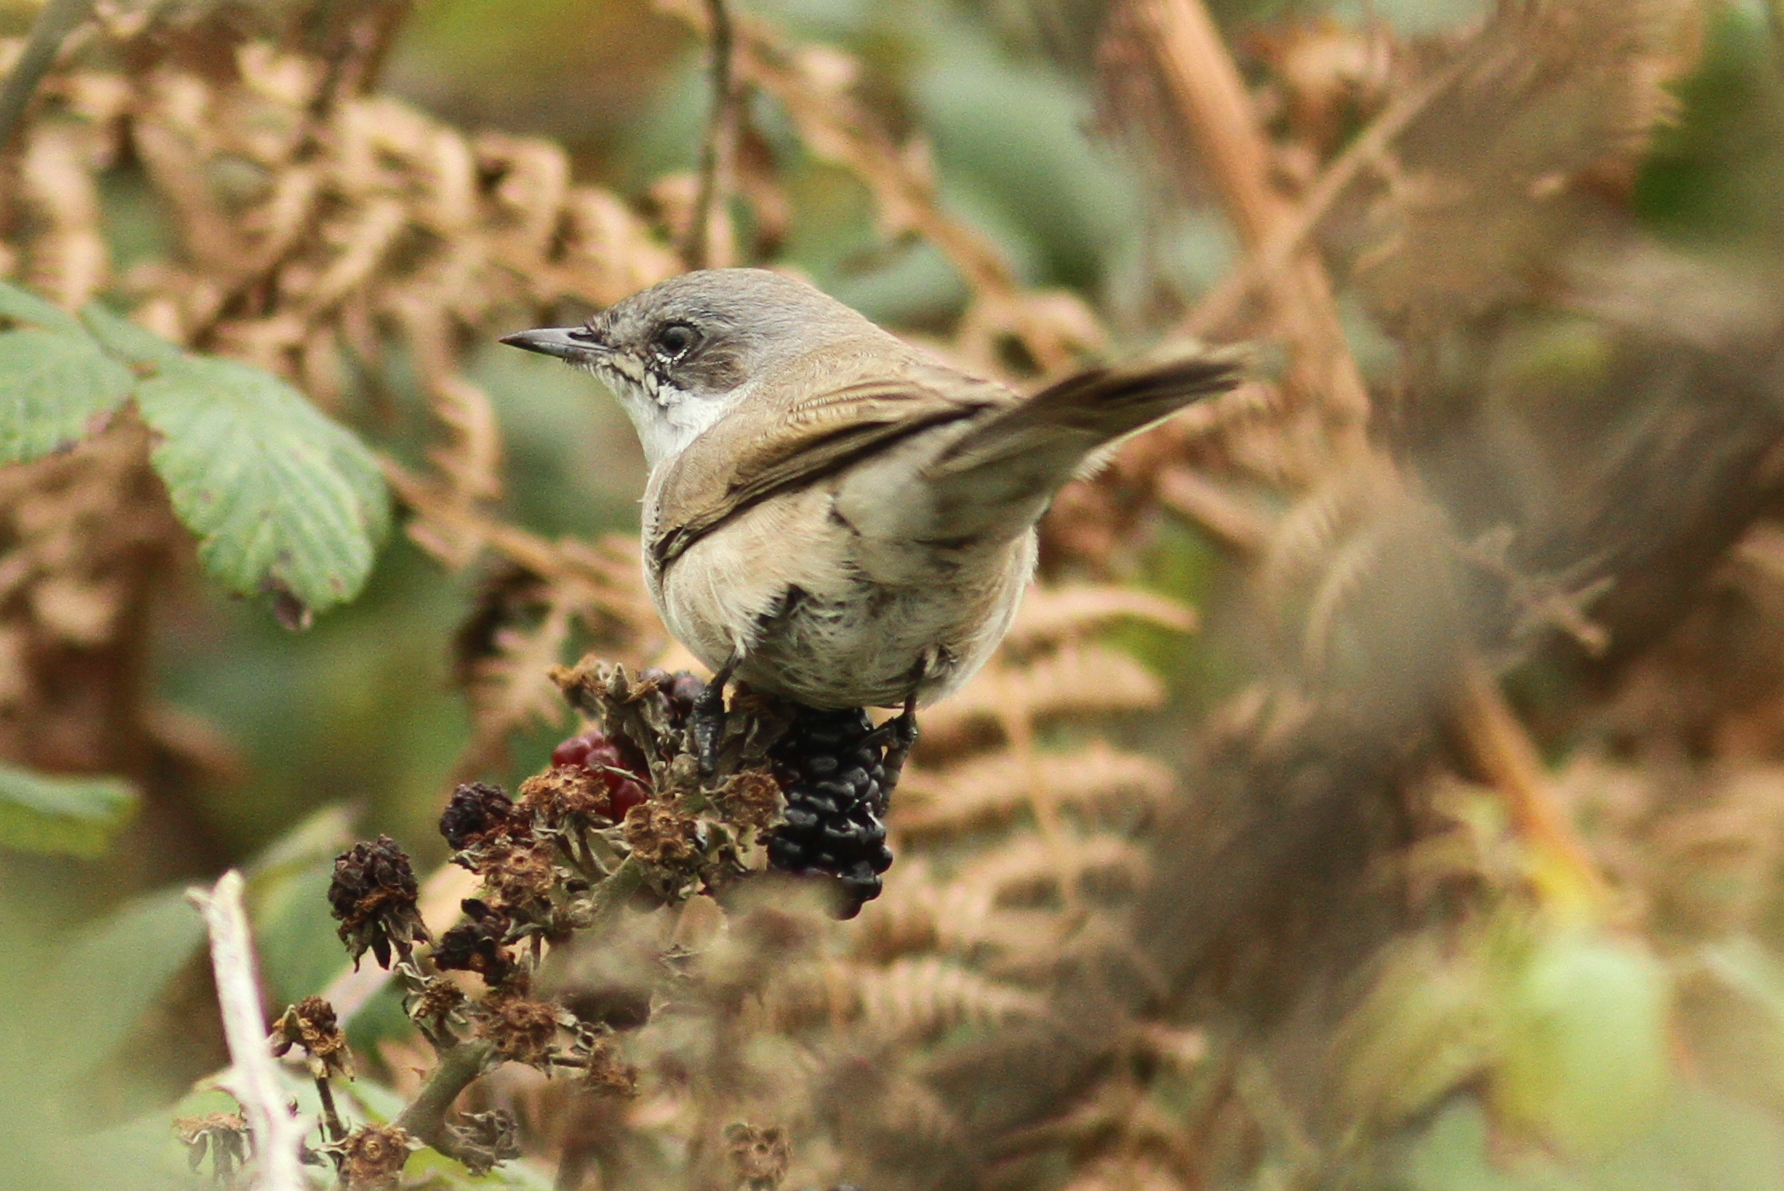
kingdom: Animalia
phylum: Chordata
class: Aves
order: Passeriformes
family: Sylviidae
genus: Sylvia
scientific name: Sylvia curruca
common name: Lesser whitethroat
